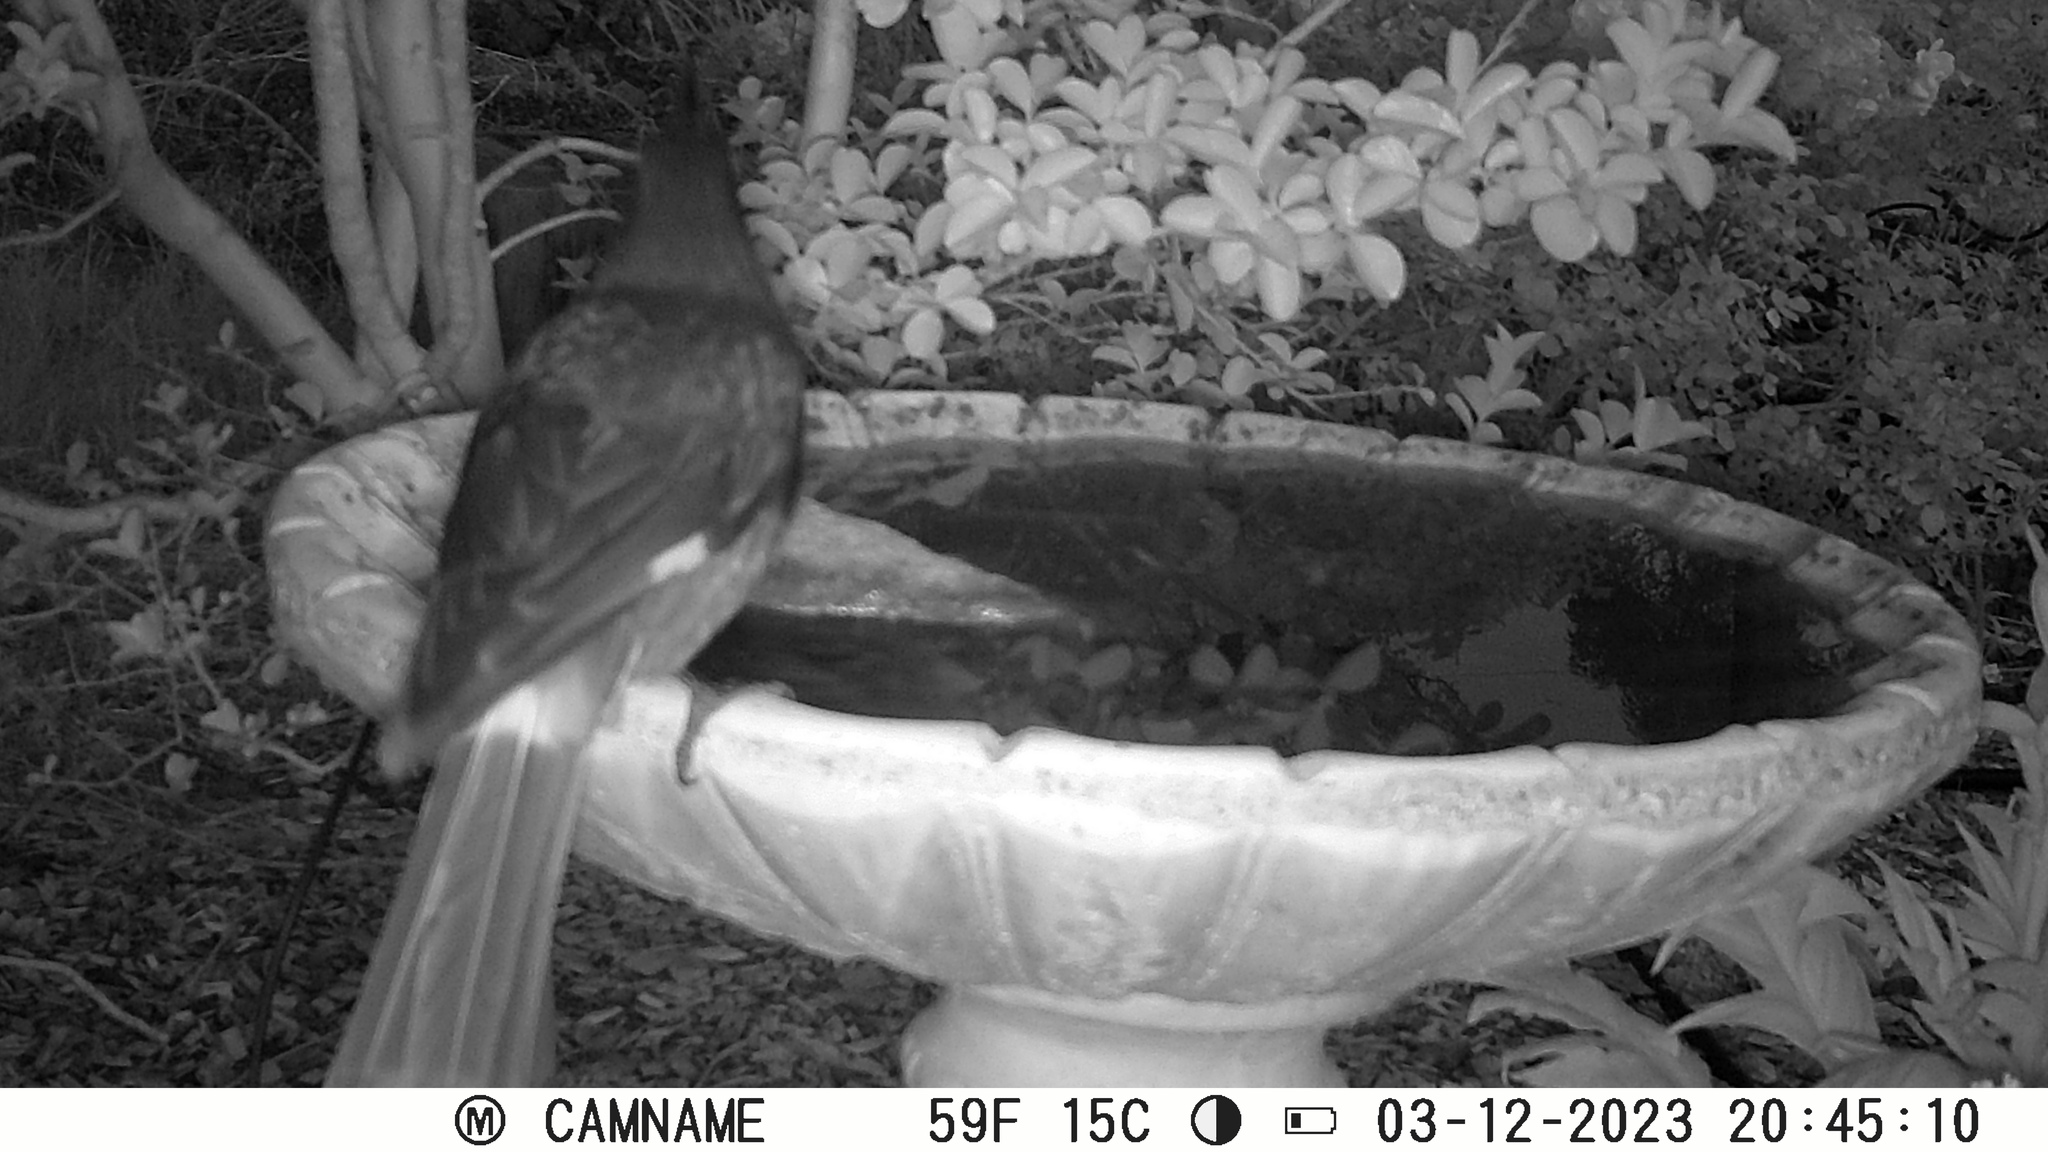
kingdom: Animalia
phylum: Chordata
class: Aves
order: Passeriformes
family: Cracticidae
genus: Strepera
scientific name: Strepera graculina
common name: Pied currawong
